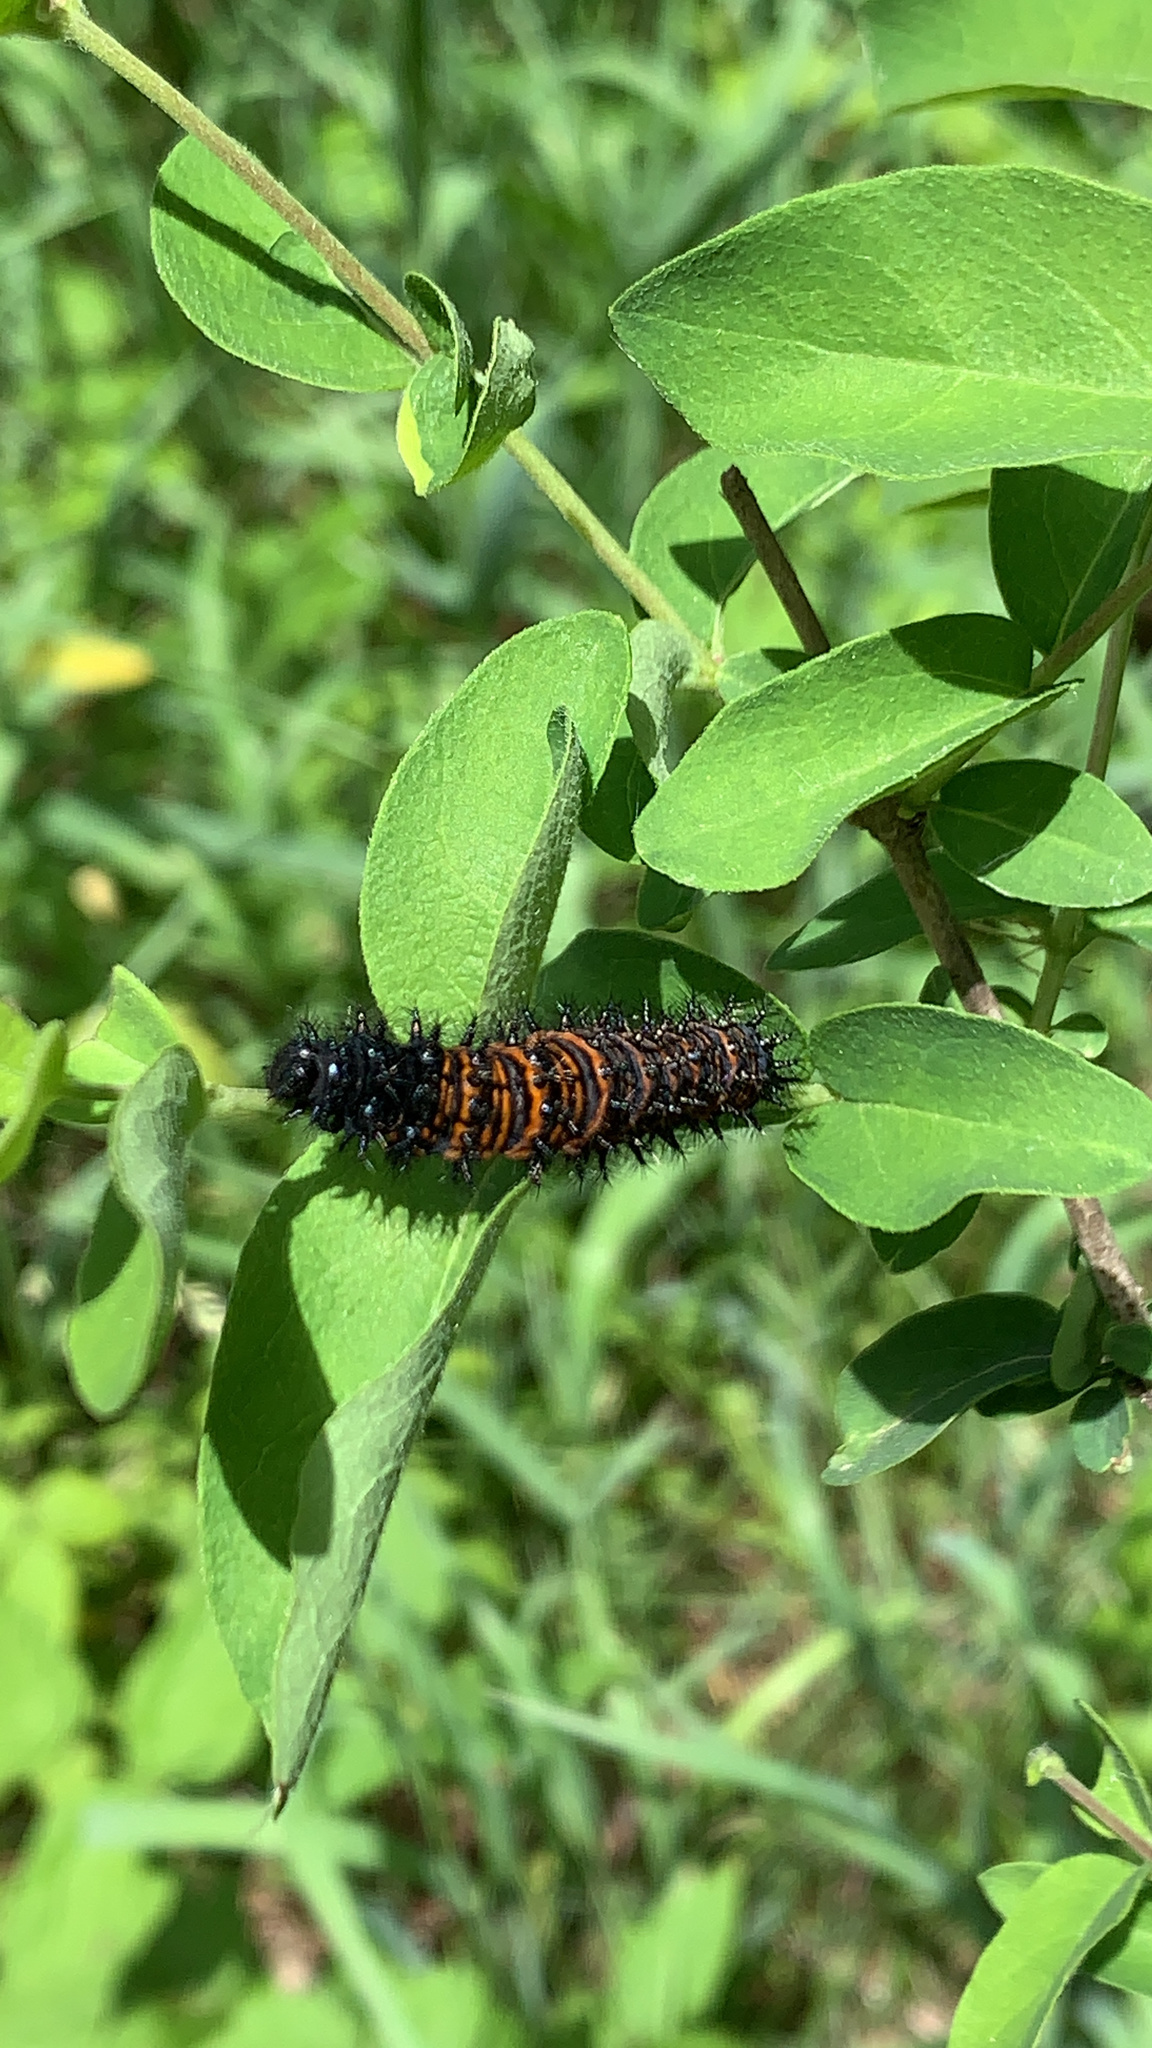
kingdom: Animalia
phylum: Arthropoda
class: Insecta
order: Lepidoptera
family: Nymphalidae
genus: Euphydryas
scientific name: Euphydryas phaeton
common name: Baltimore checkerspot
